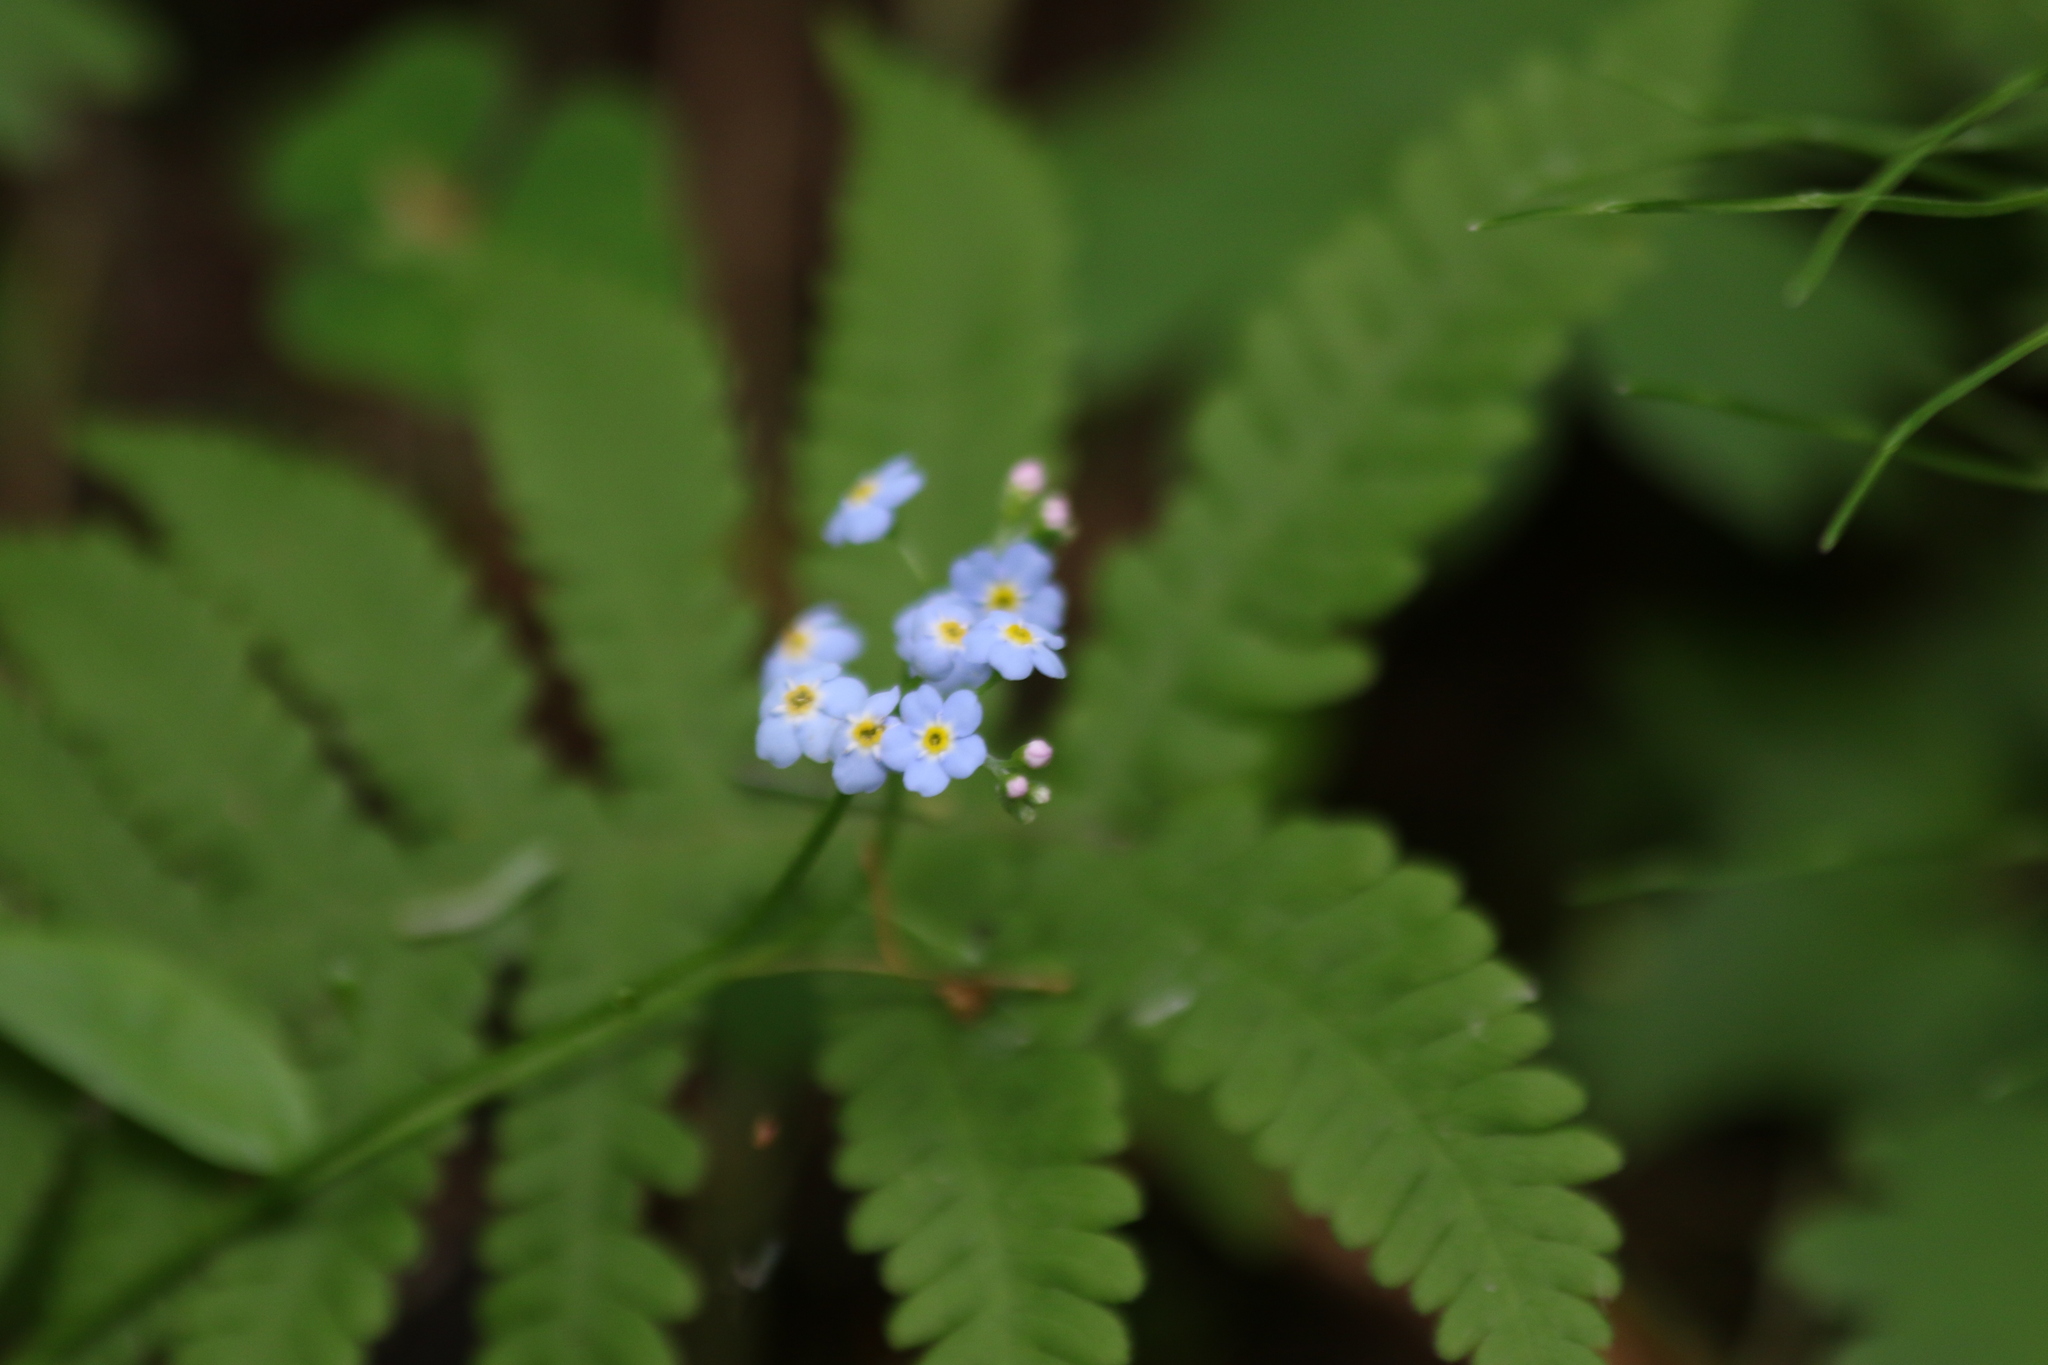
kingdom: Plantae
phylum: Tracheophyta
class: Magnoliopsida
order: Boraginales
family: Boraginaceae
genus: Myosotis
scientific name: Myosotis scorpioides
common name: Water forget-me-not
